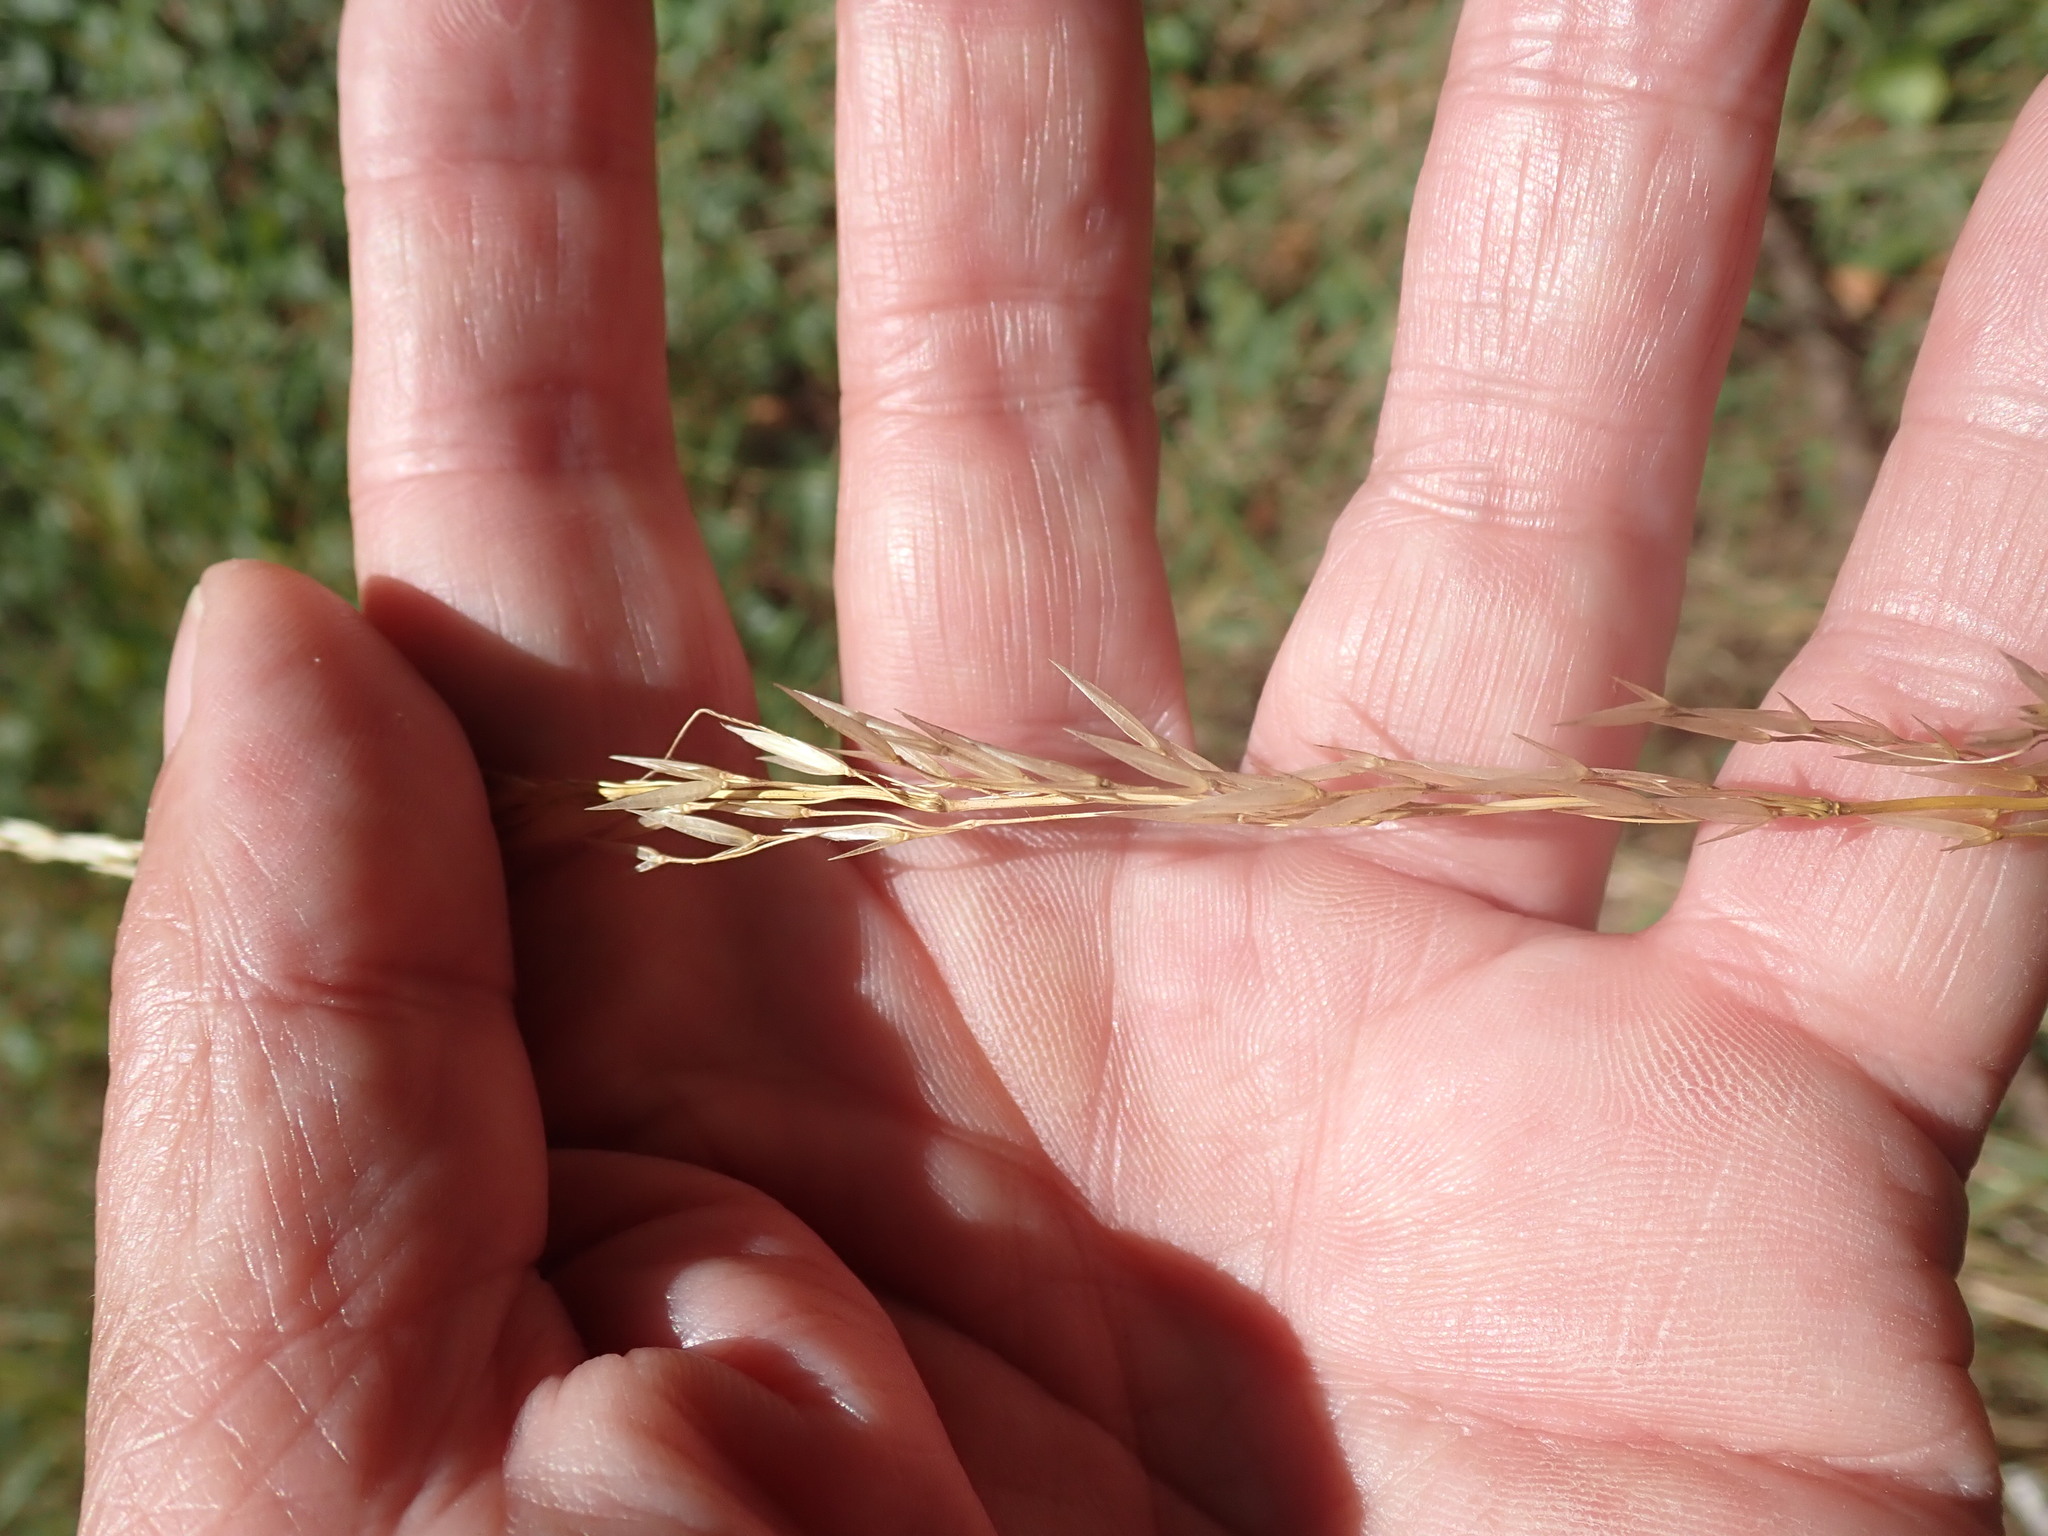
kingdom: Plantae
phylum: Tracheophyta
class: Liliopsida
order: Poales
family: Poaceae
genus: Arrhenatherum
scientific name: Arrhenatherum elatius
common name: Tall oatgrass
